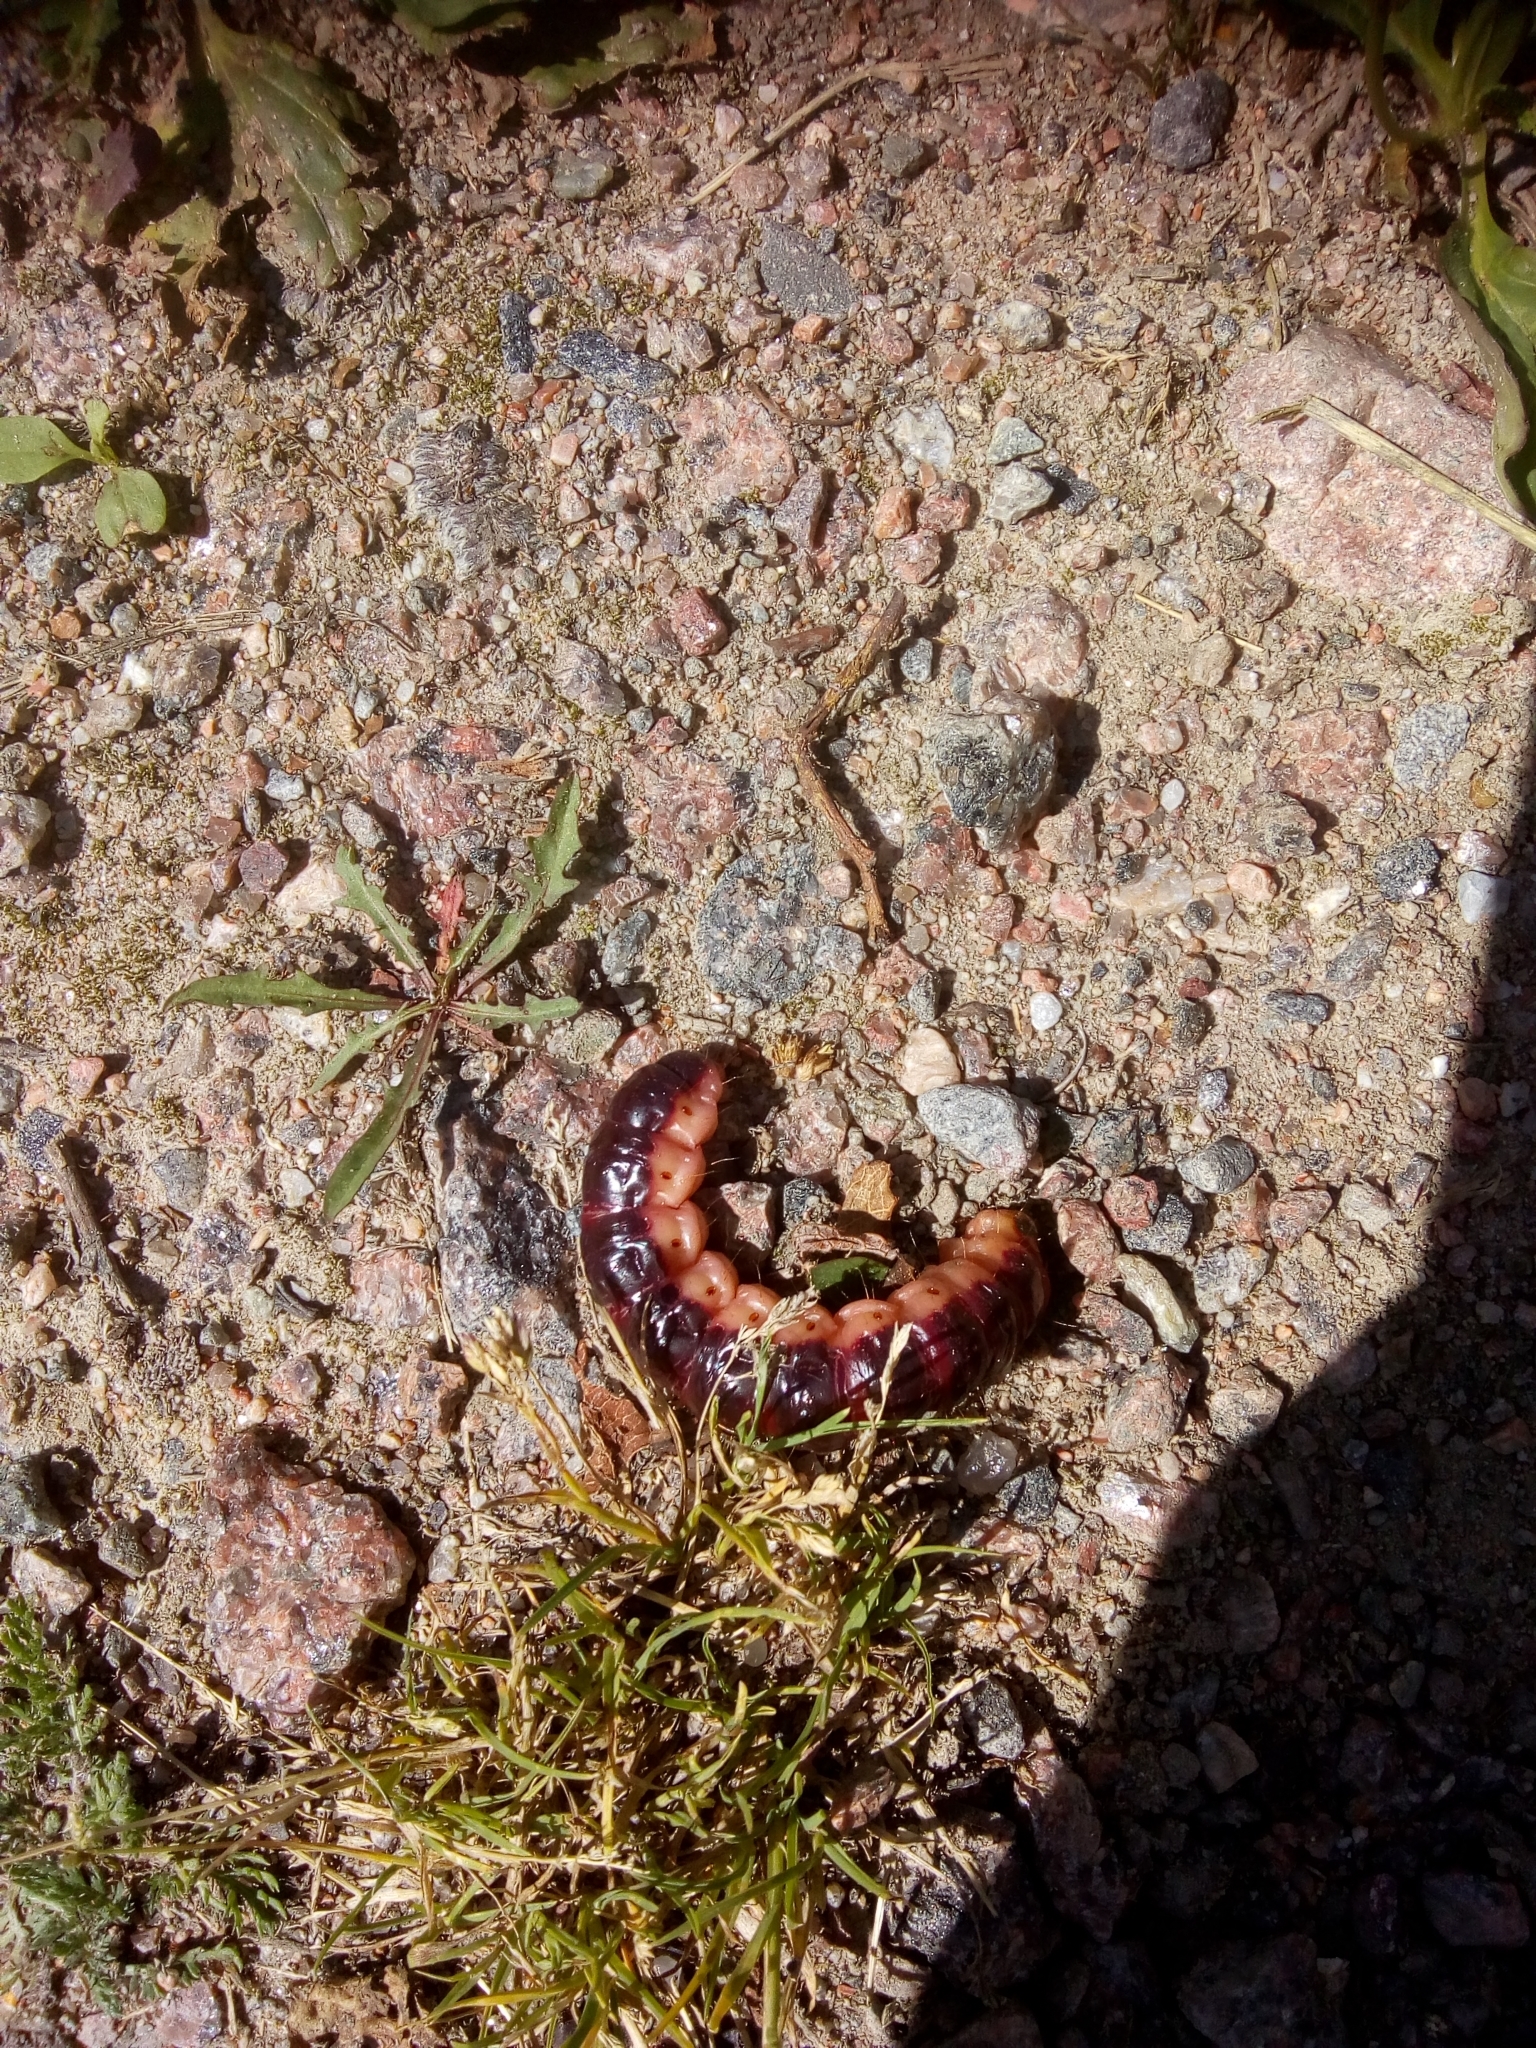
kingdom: Animalia
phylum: Arthropoda
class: Insecta
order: Lepidoptera
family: Cossidae
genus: Cossus
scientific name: Cossus cossus
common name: Goat moth
